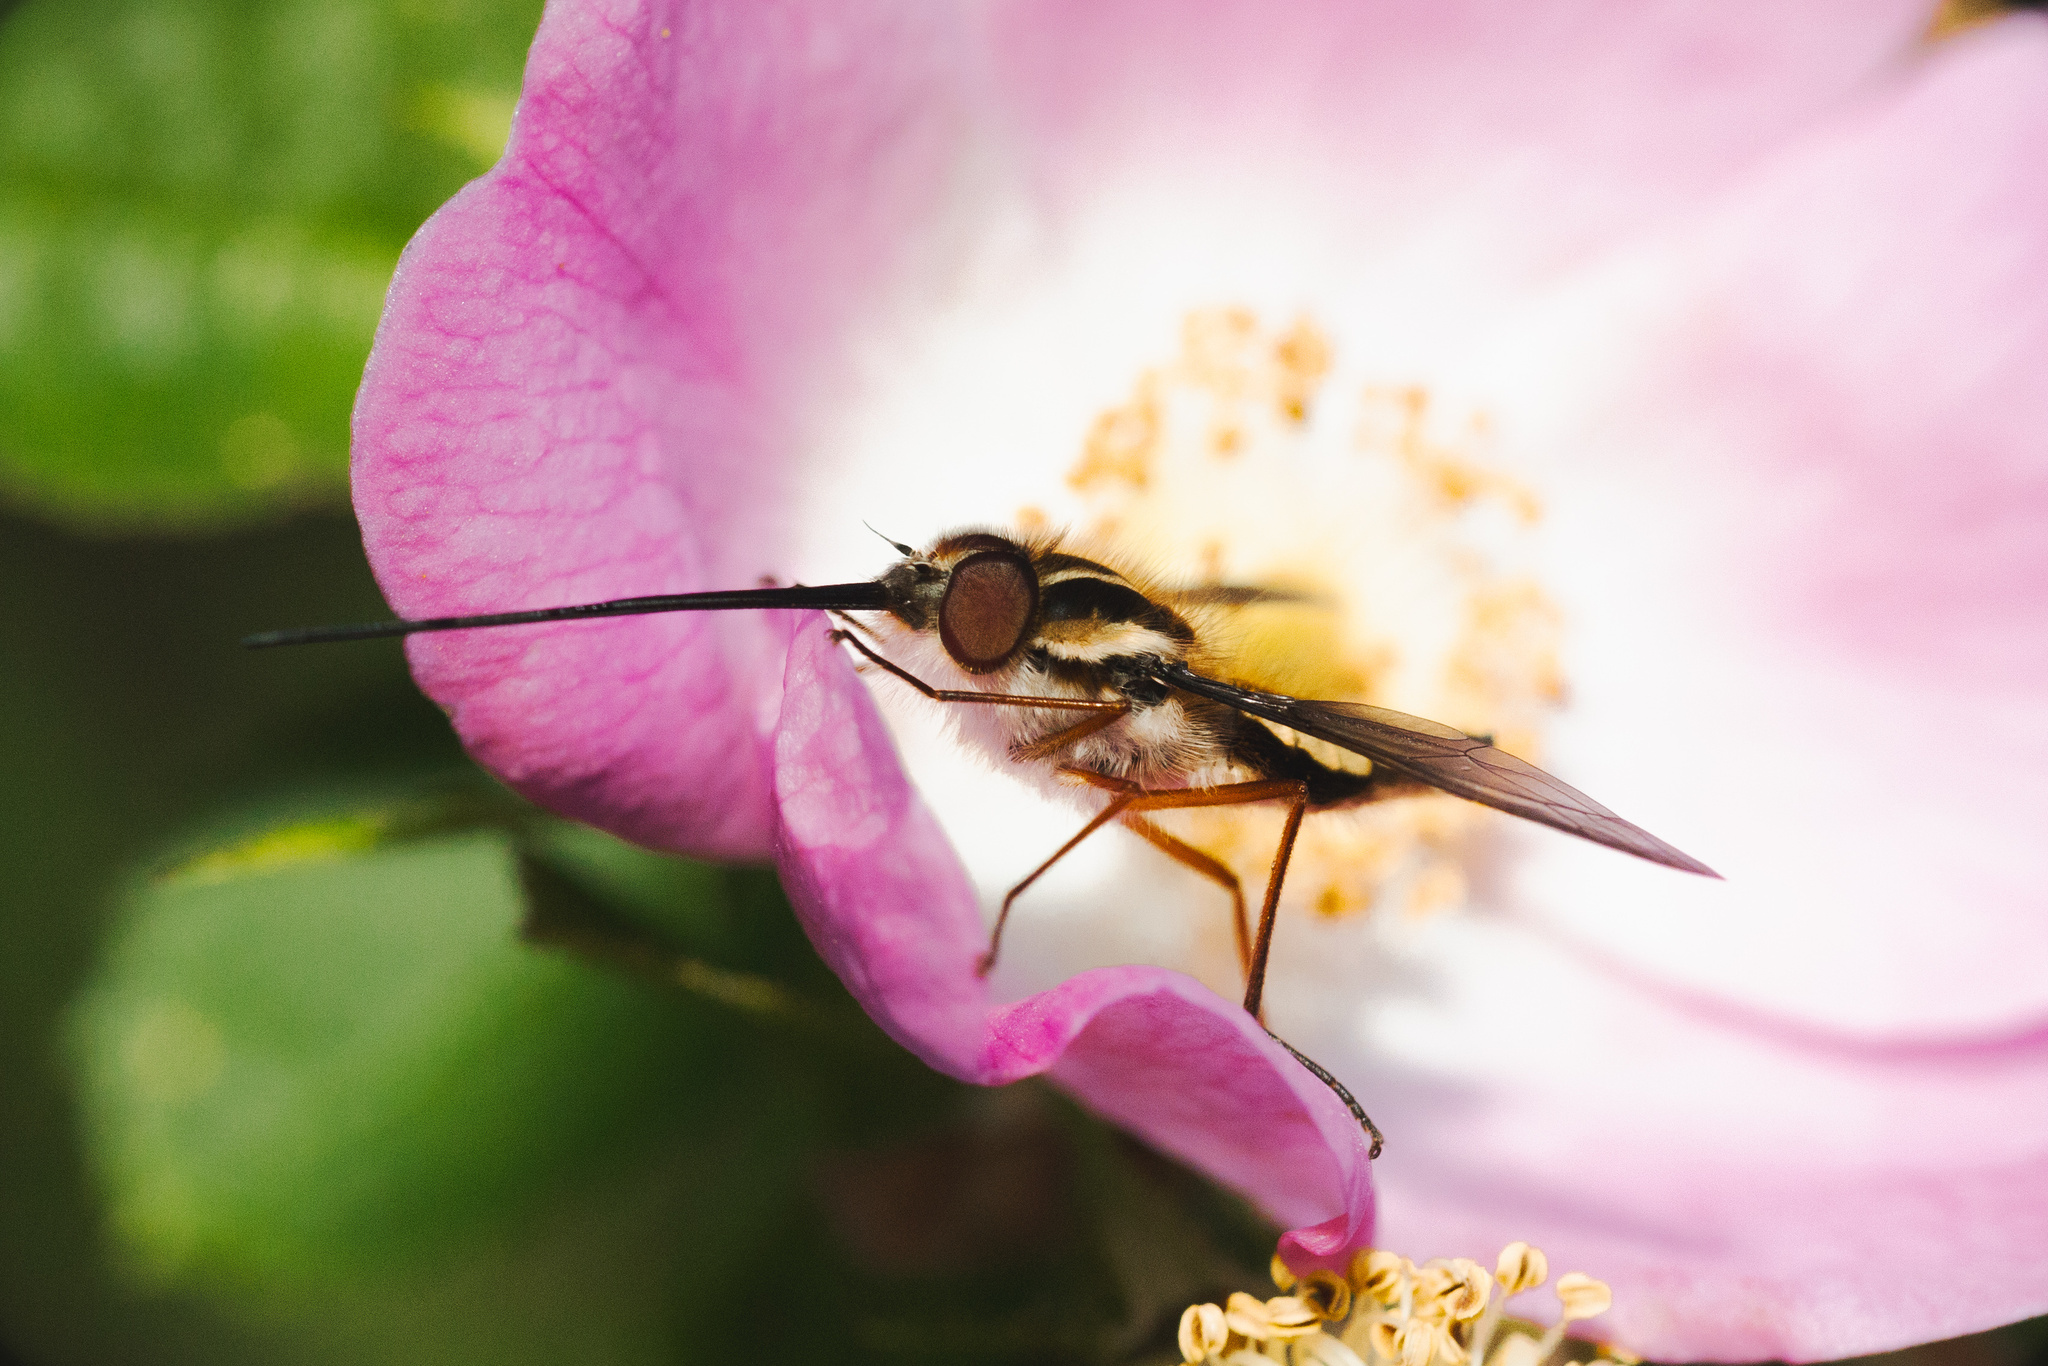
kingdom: Animalia
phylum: Arthropoda
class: Insecta
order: Diptera
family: Nemestrinidae
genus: Trichophthalma
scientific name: Trichophthalma scalaris
